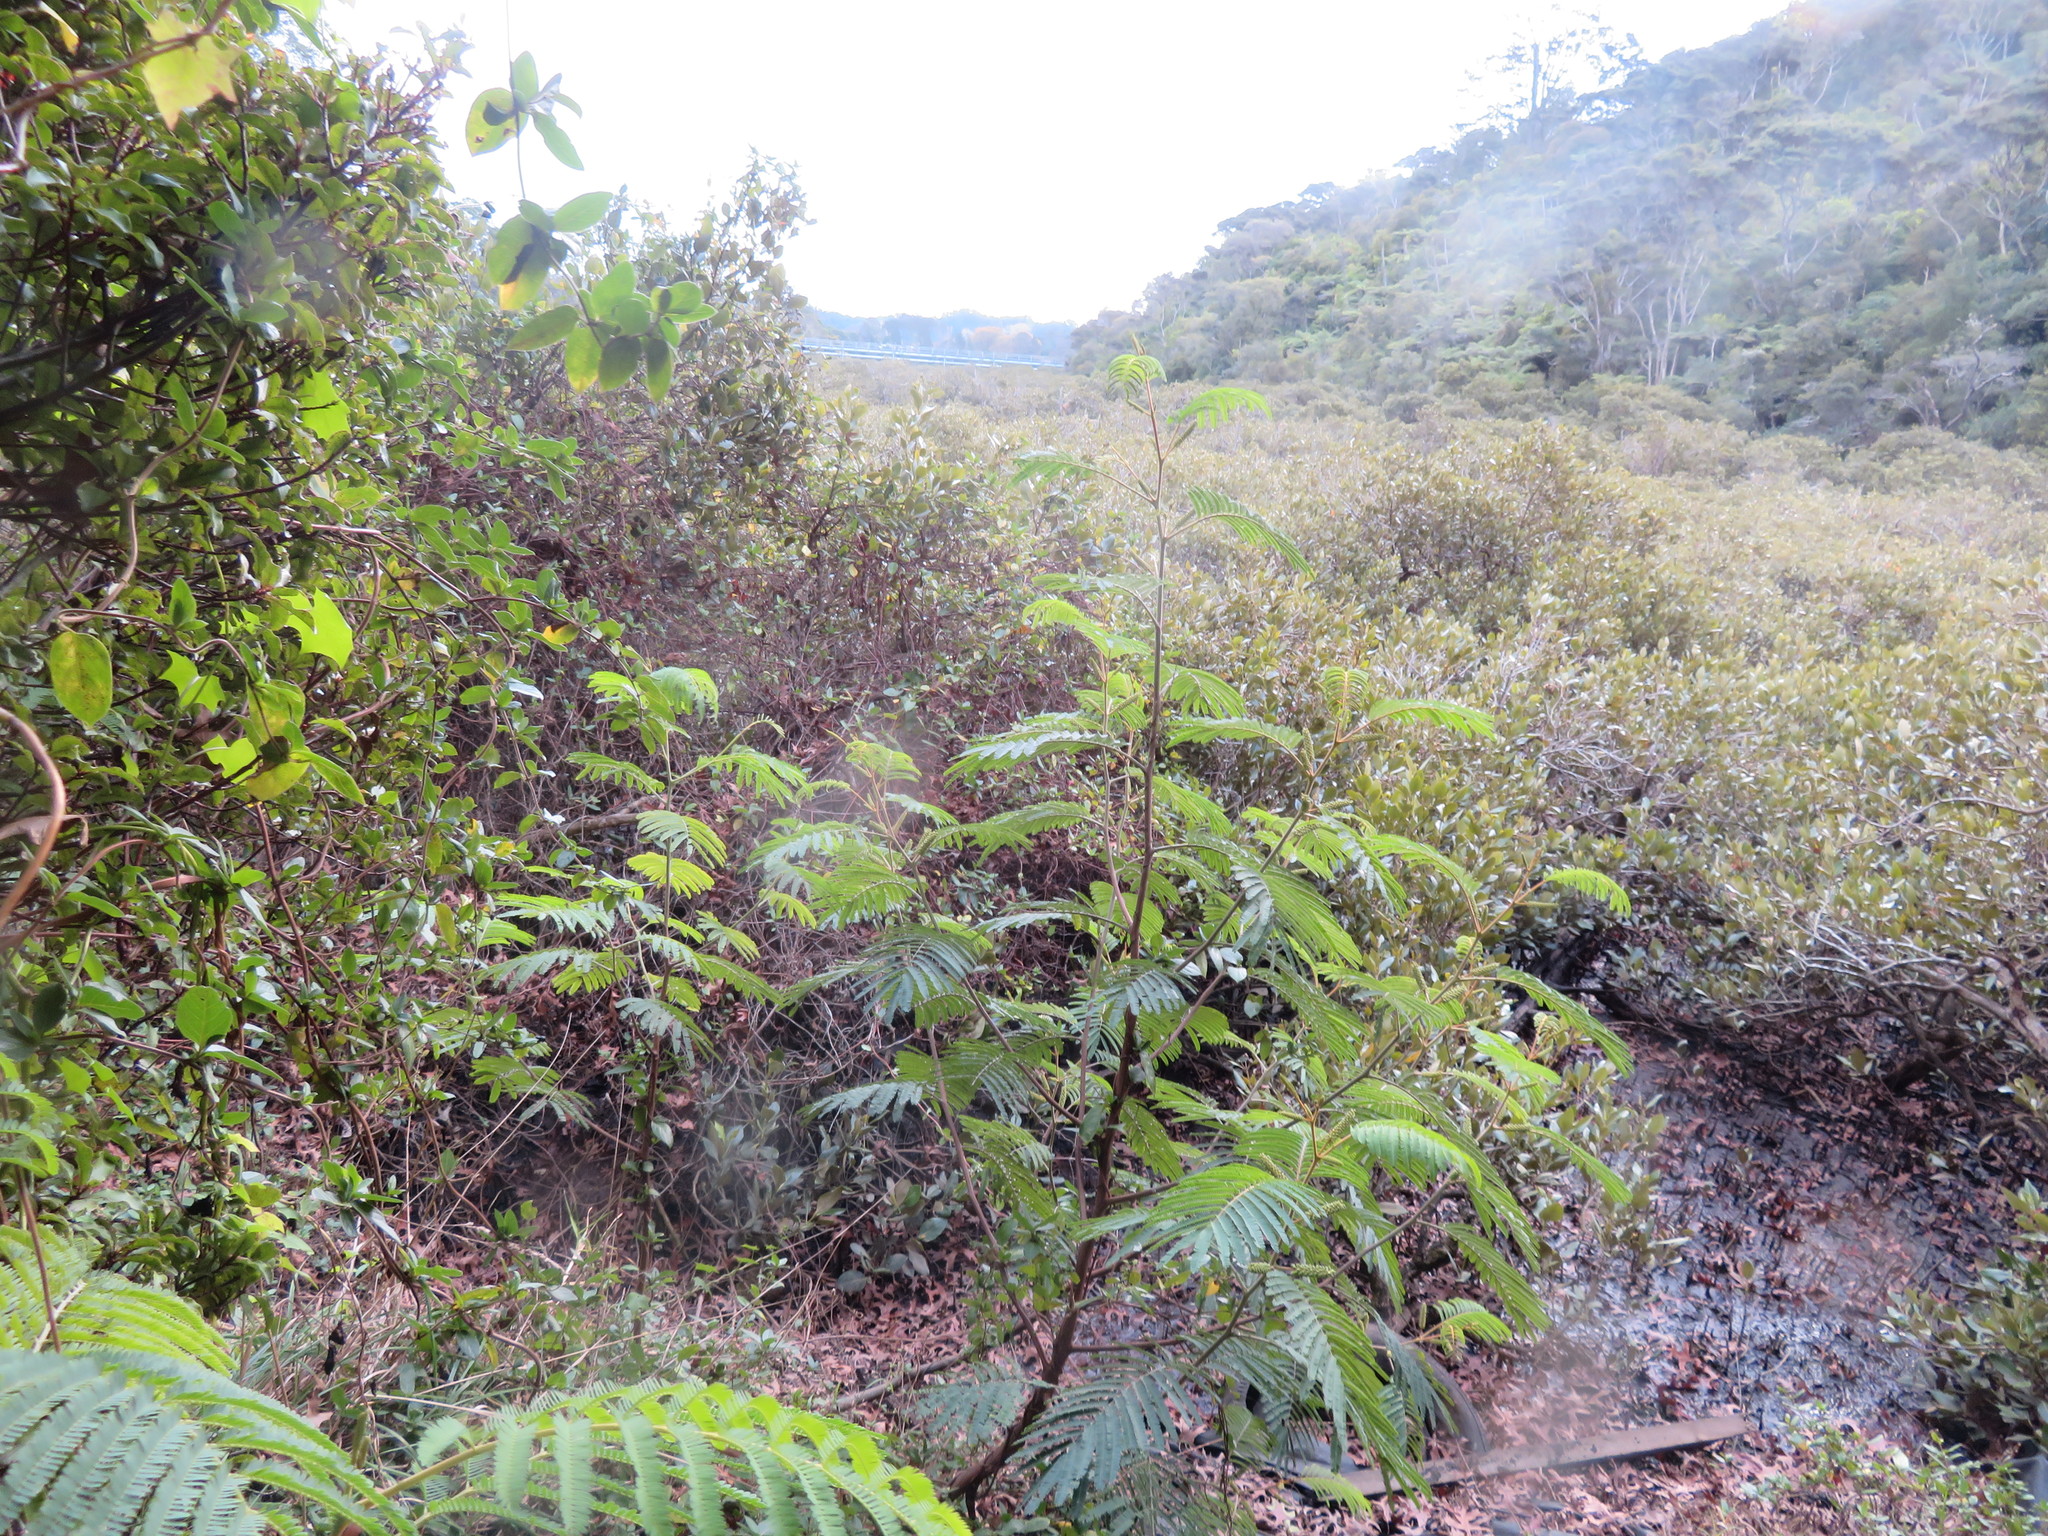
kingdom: Plantae
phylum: Tracheophyta
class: Magnoliopsida
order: Asterales
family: Asteraceae
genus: Delairea
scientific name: Delairea odorata
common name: Cape-ivy
